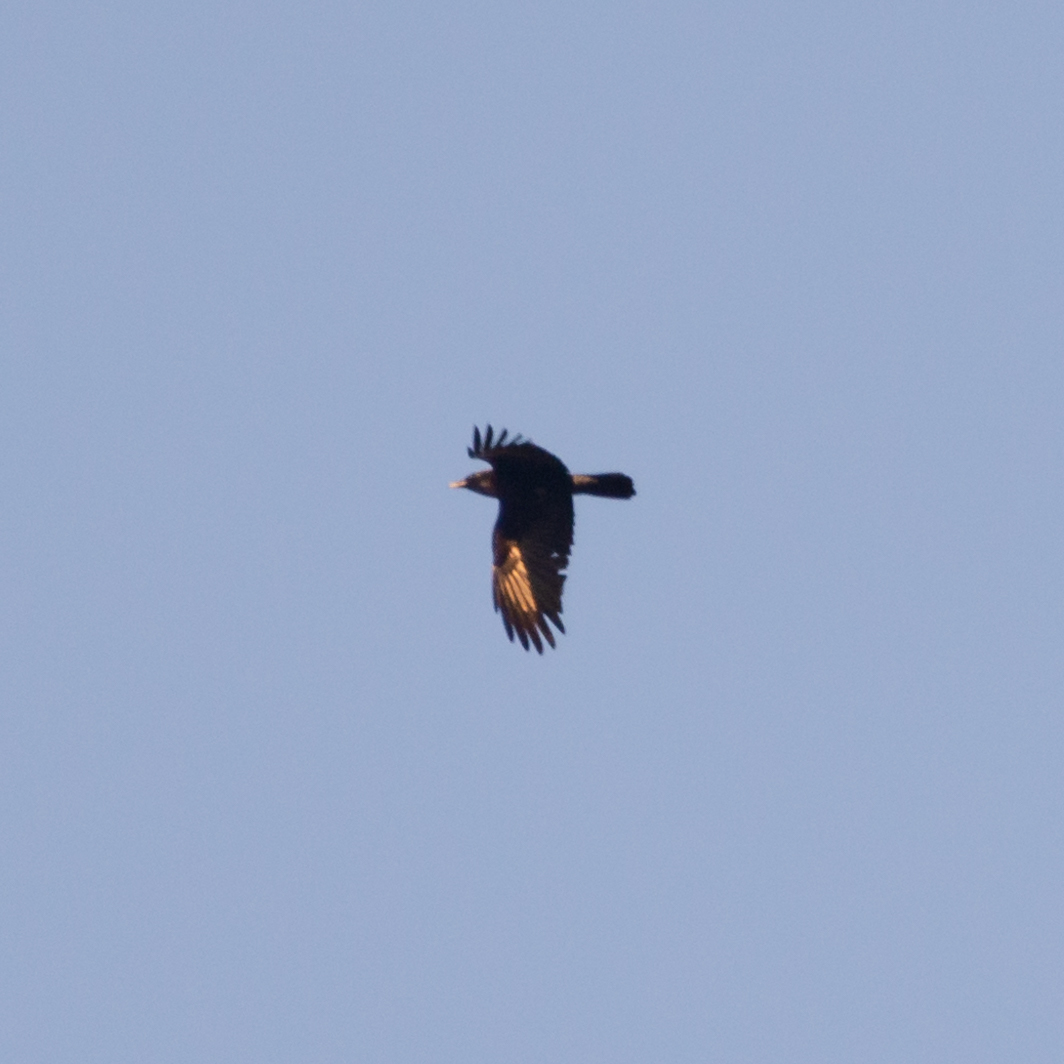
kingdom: Animalia
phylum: Chordata
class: Aves
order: Passeriformes
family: Corvidae
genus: Corvus
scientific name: Corvus corone
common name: Carrion crow
